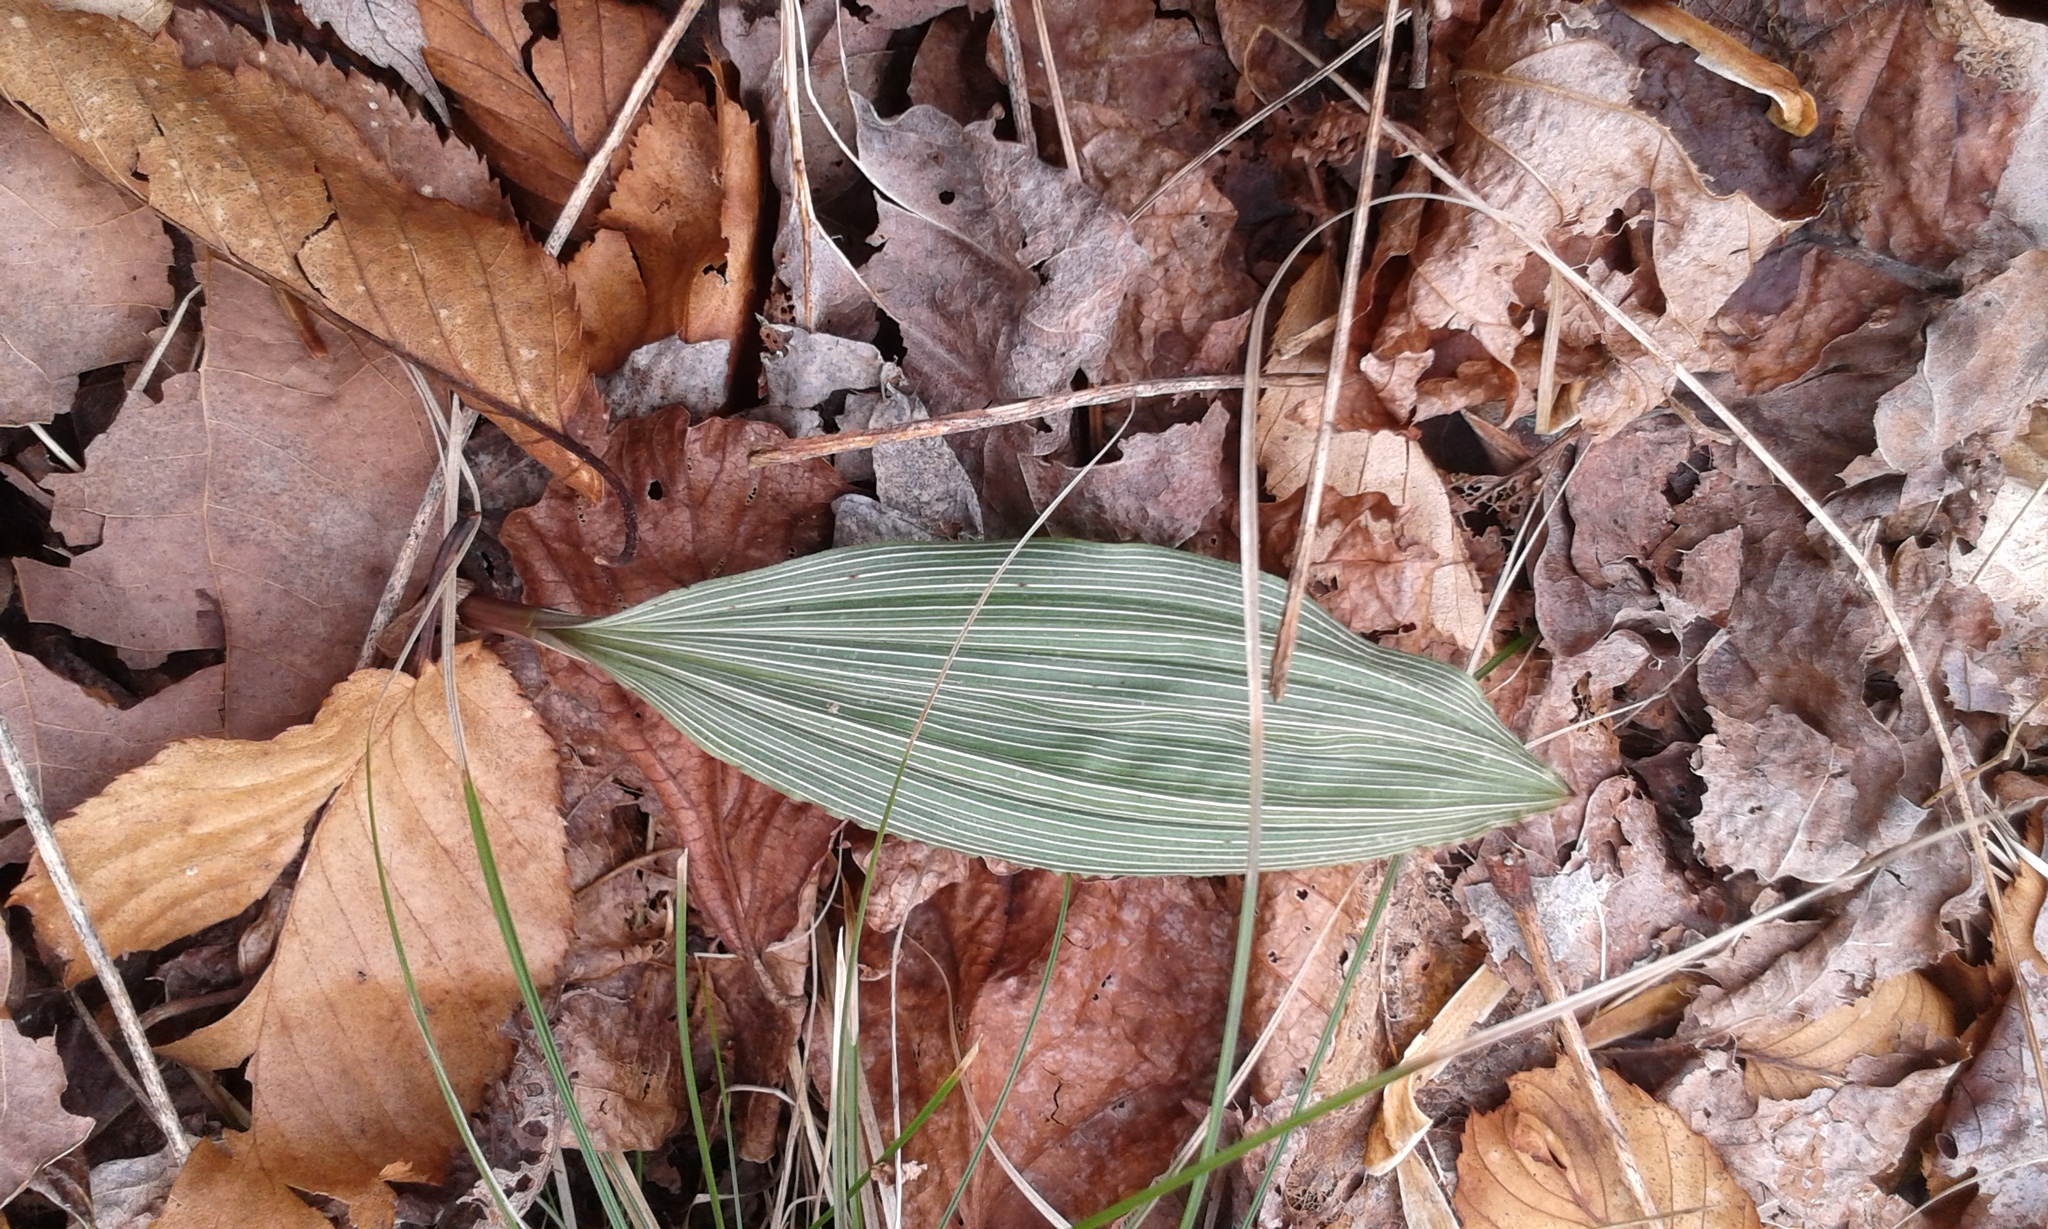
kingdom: Plantae
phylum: Tracheophyta
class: Liliopsida
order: Asparagales
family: Orchidaceae
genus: Aplectrum
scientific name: Aplectrum hyemale
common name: Adam-and-eve
